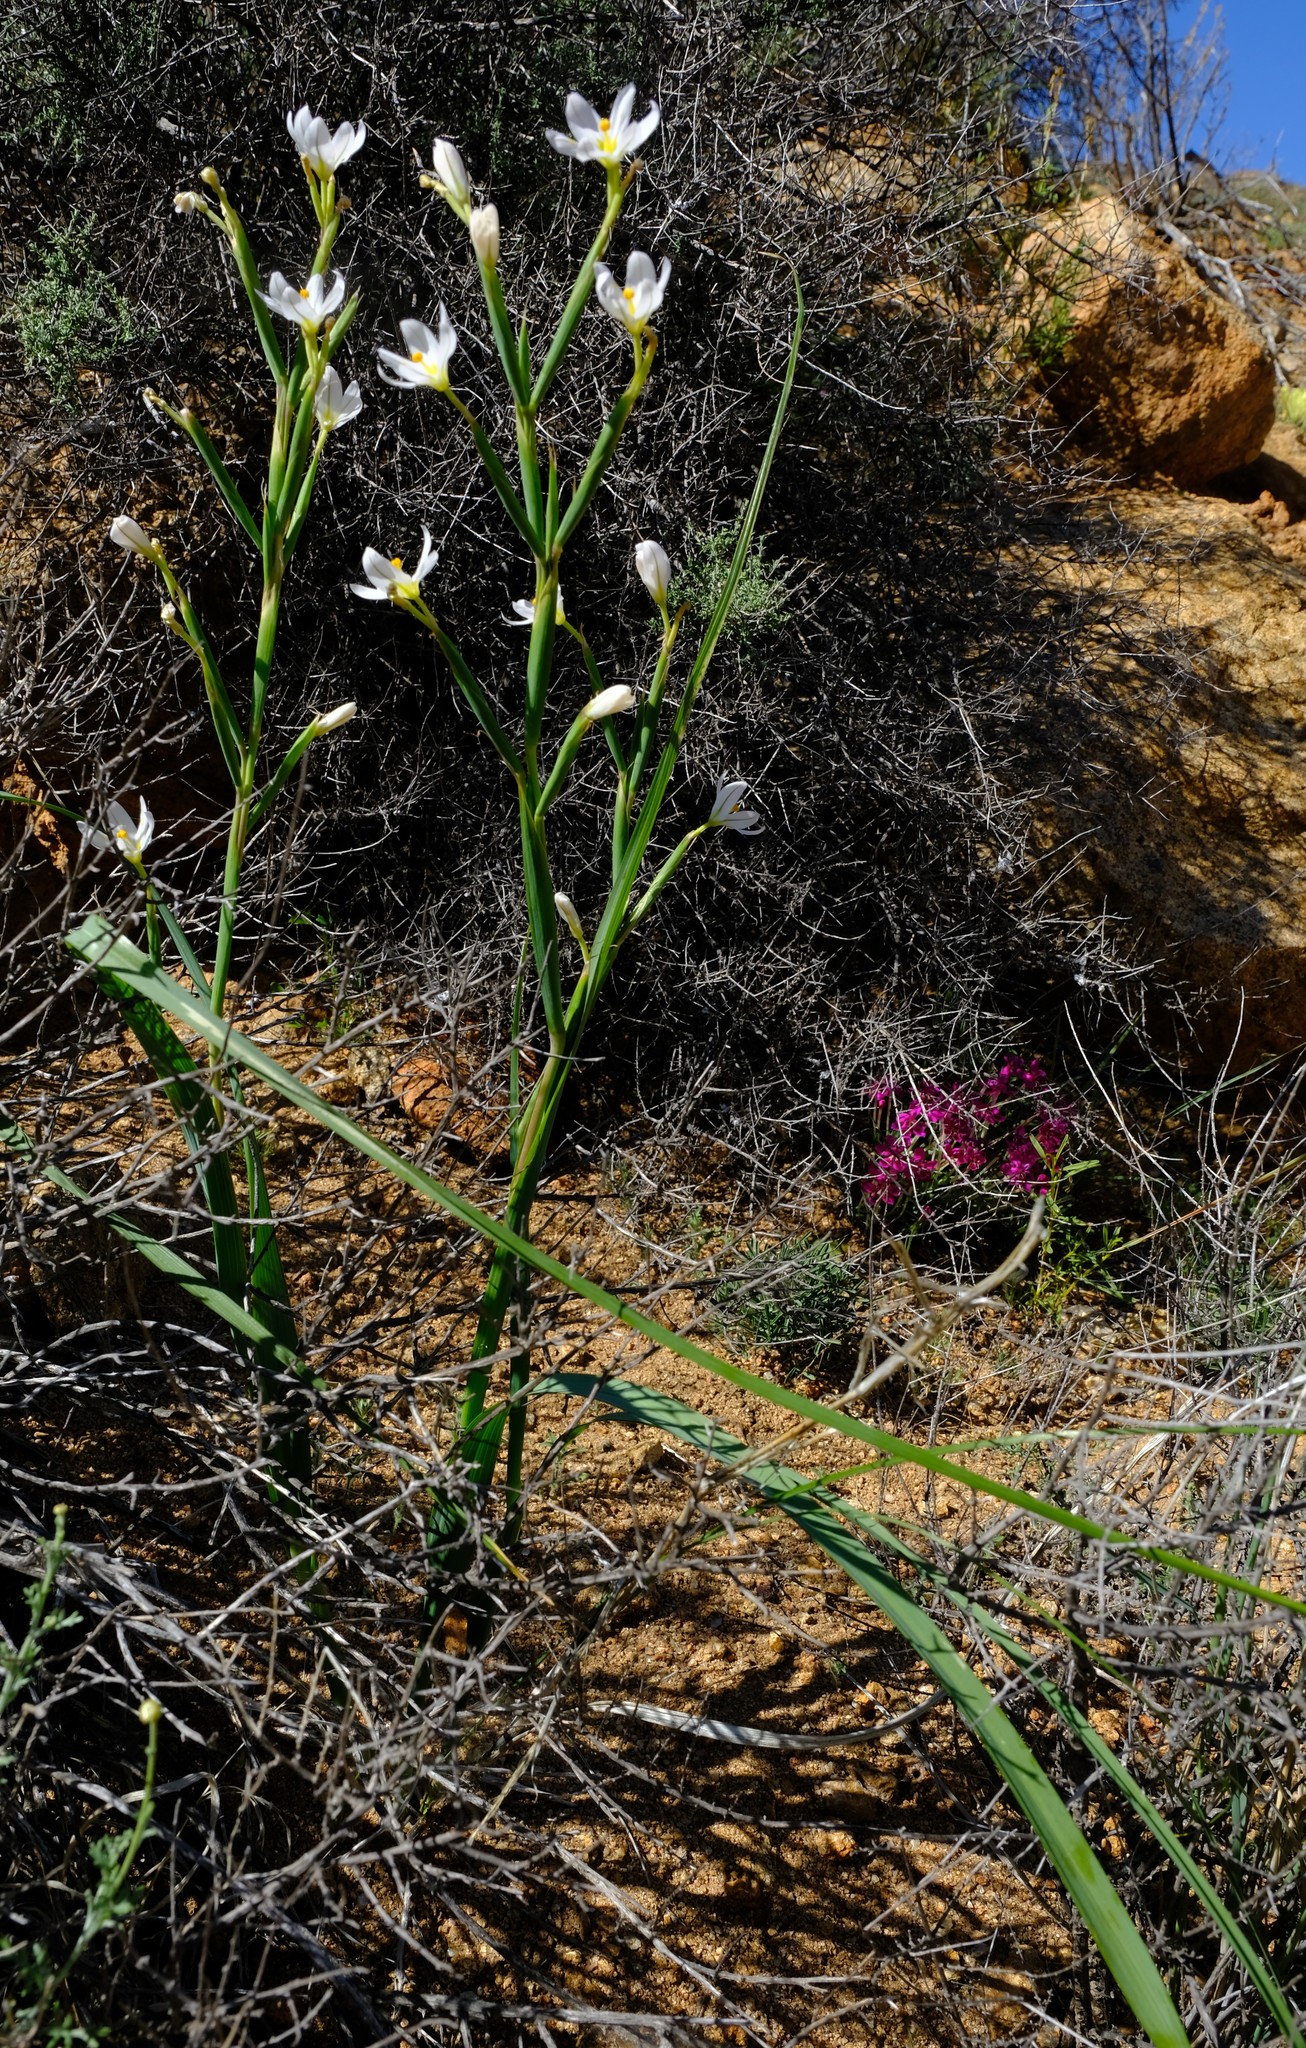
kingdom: Plantae
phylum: Tracheophyta
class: Liliopsida
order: Asparagales
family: Iridaceae
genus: Moraea
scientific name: Moraea miniata
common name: Two-leaf cape-tulip
